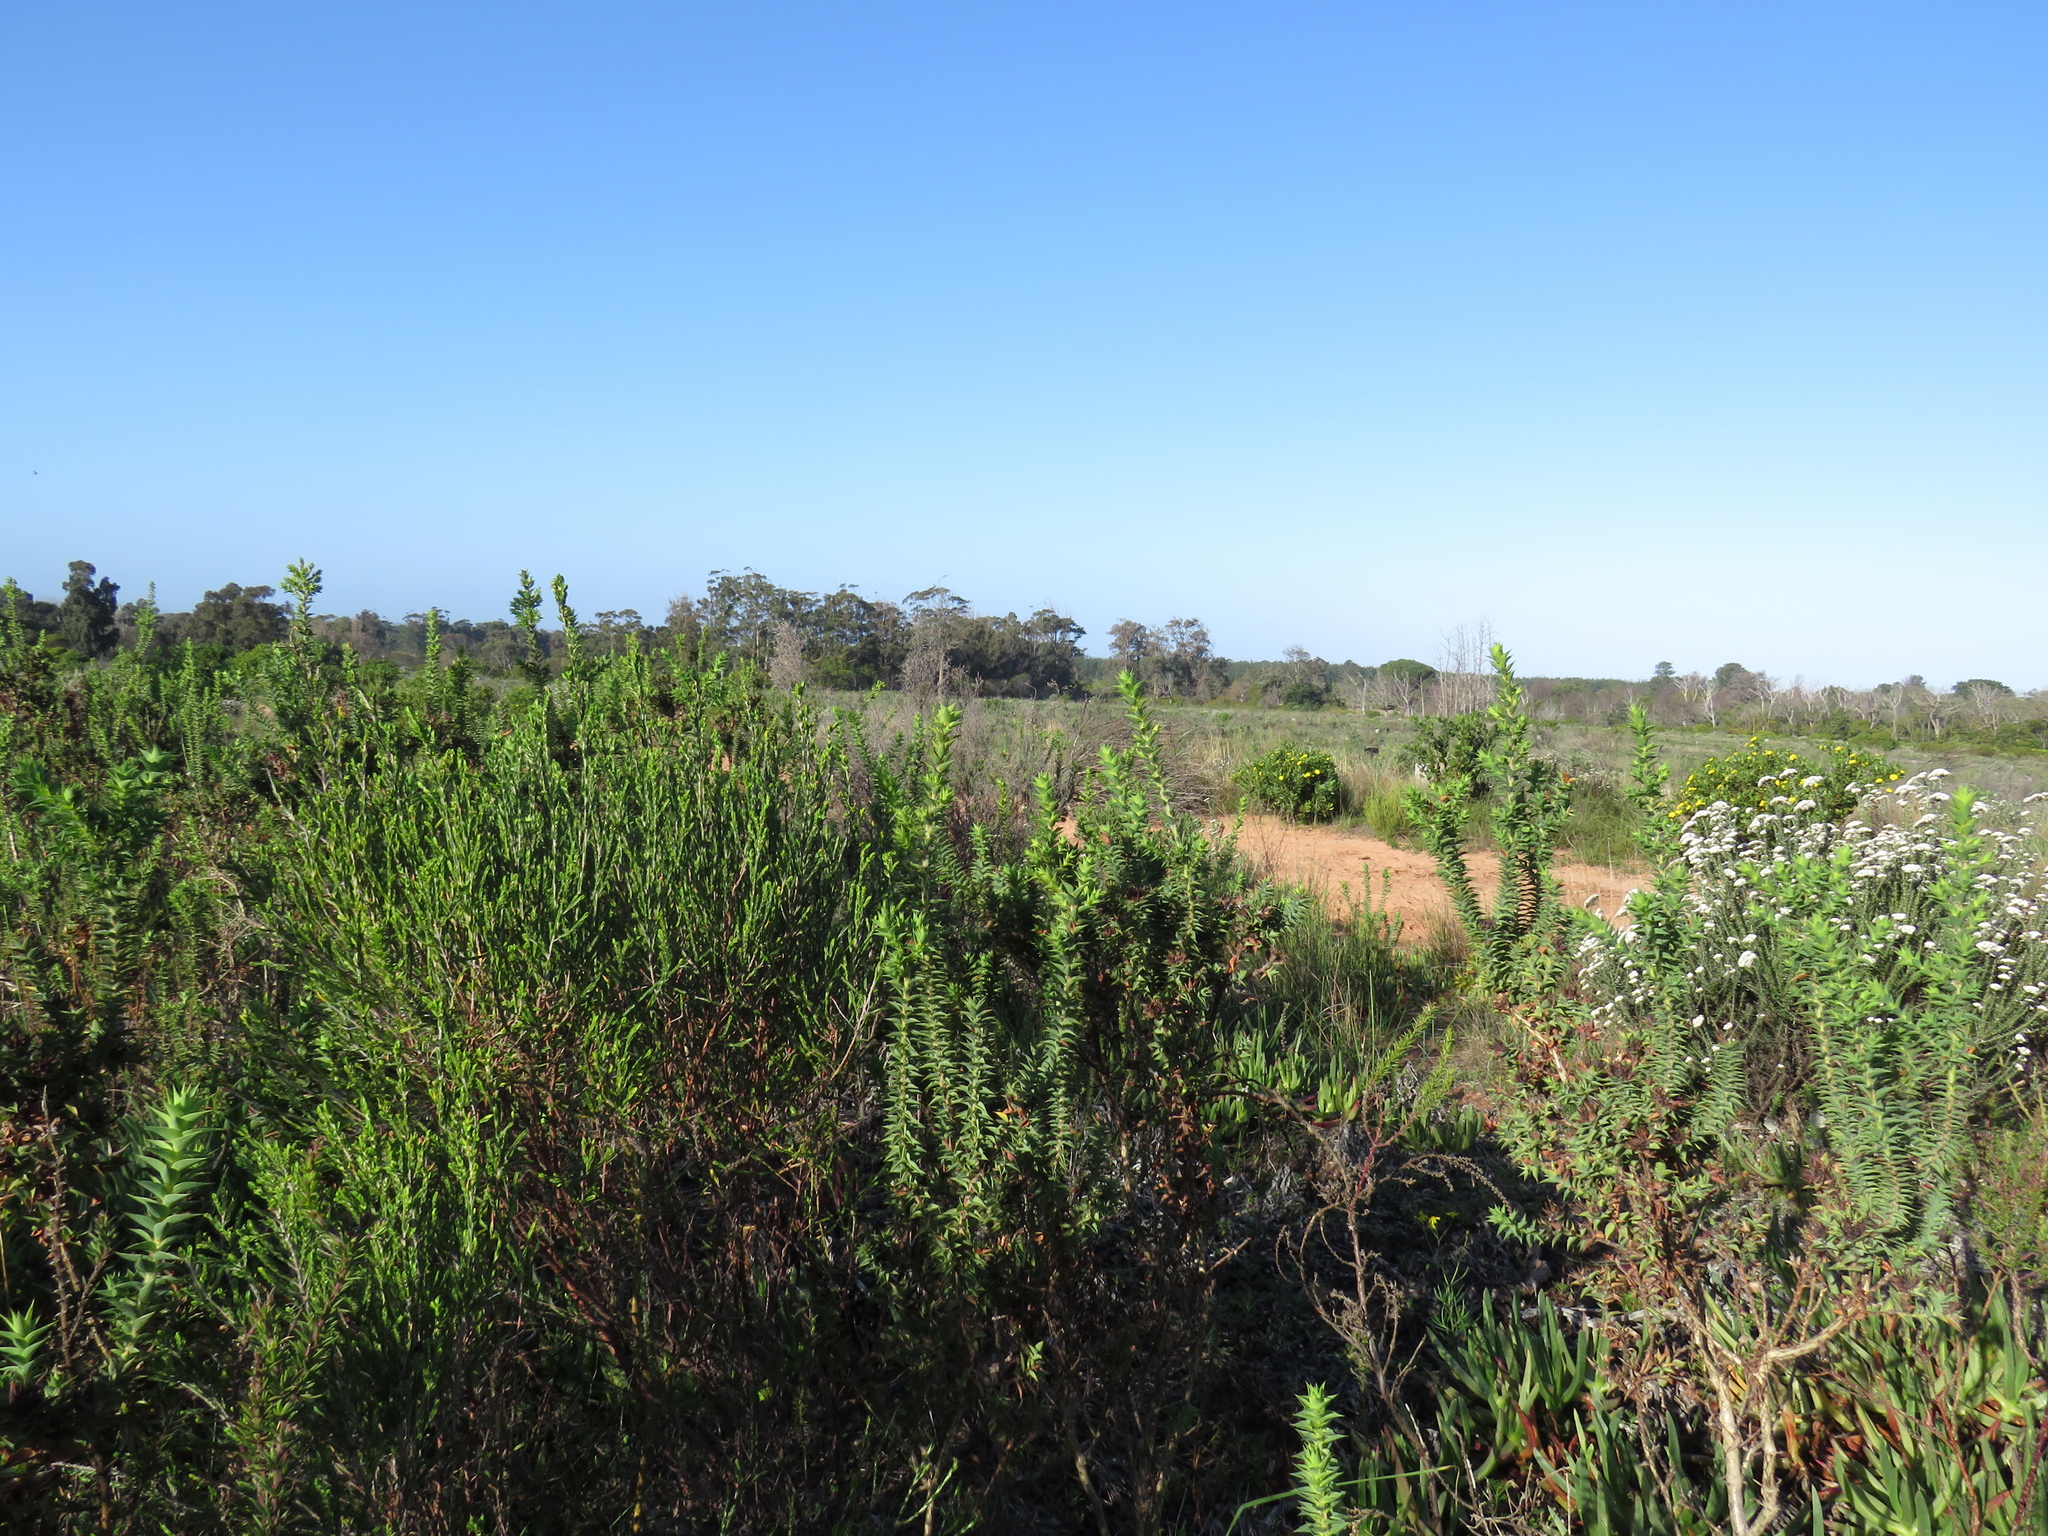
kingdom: Plantae
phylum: Tracheophyta
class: Magnoliopsida
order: Fabales
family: Fabaceae
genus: Aspalathus
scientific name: Aspalathus cordata
